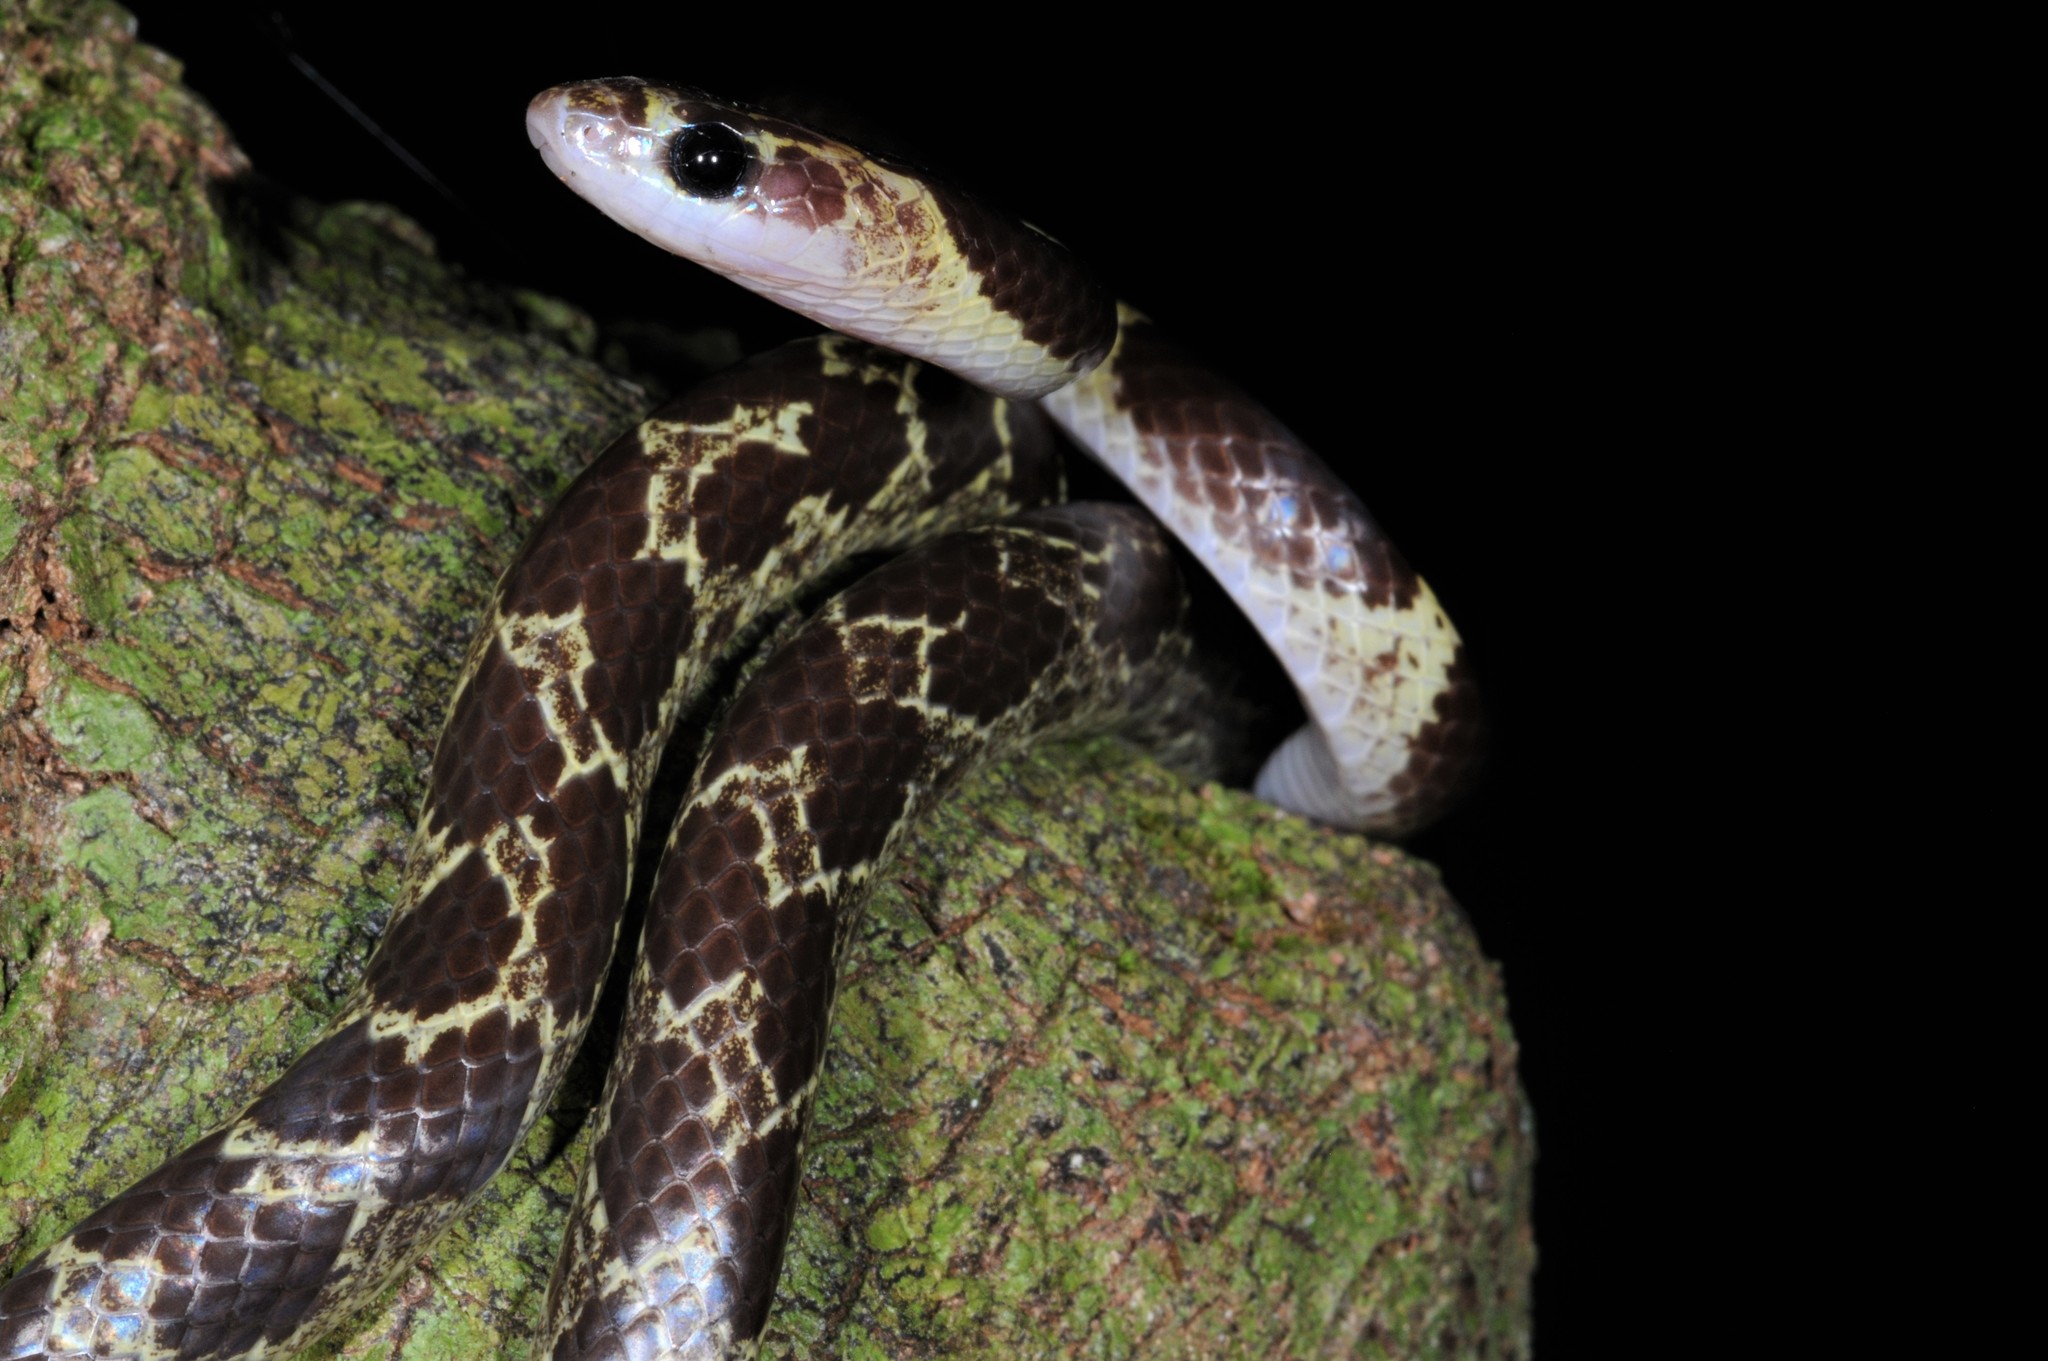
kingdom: Animalia
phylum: Chordata
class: Squamata
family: Colubridae
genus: Lycodon
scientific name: Lycodon subannulatus
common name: Malayan bridal snake
